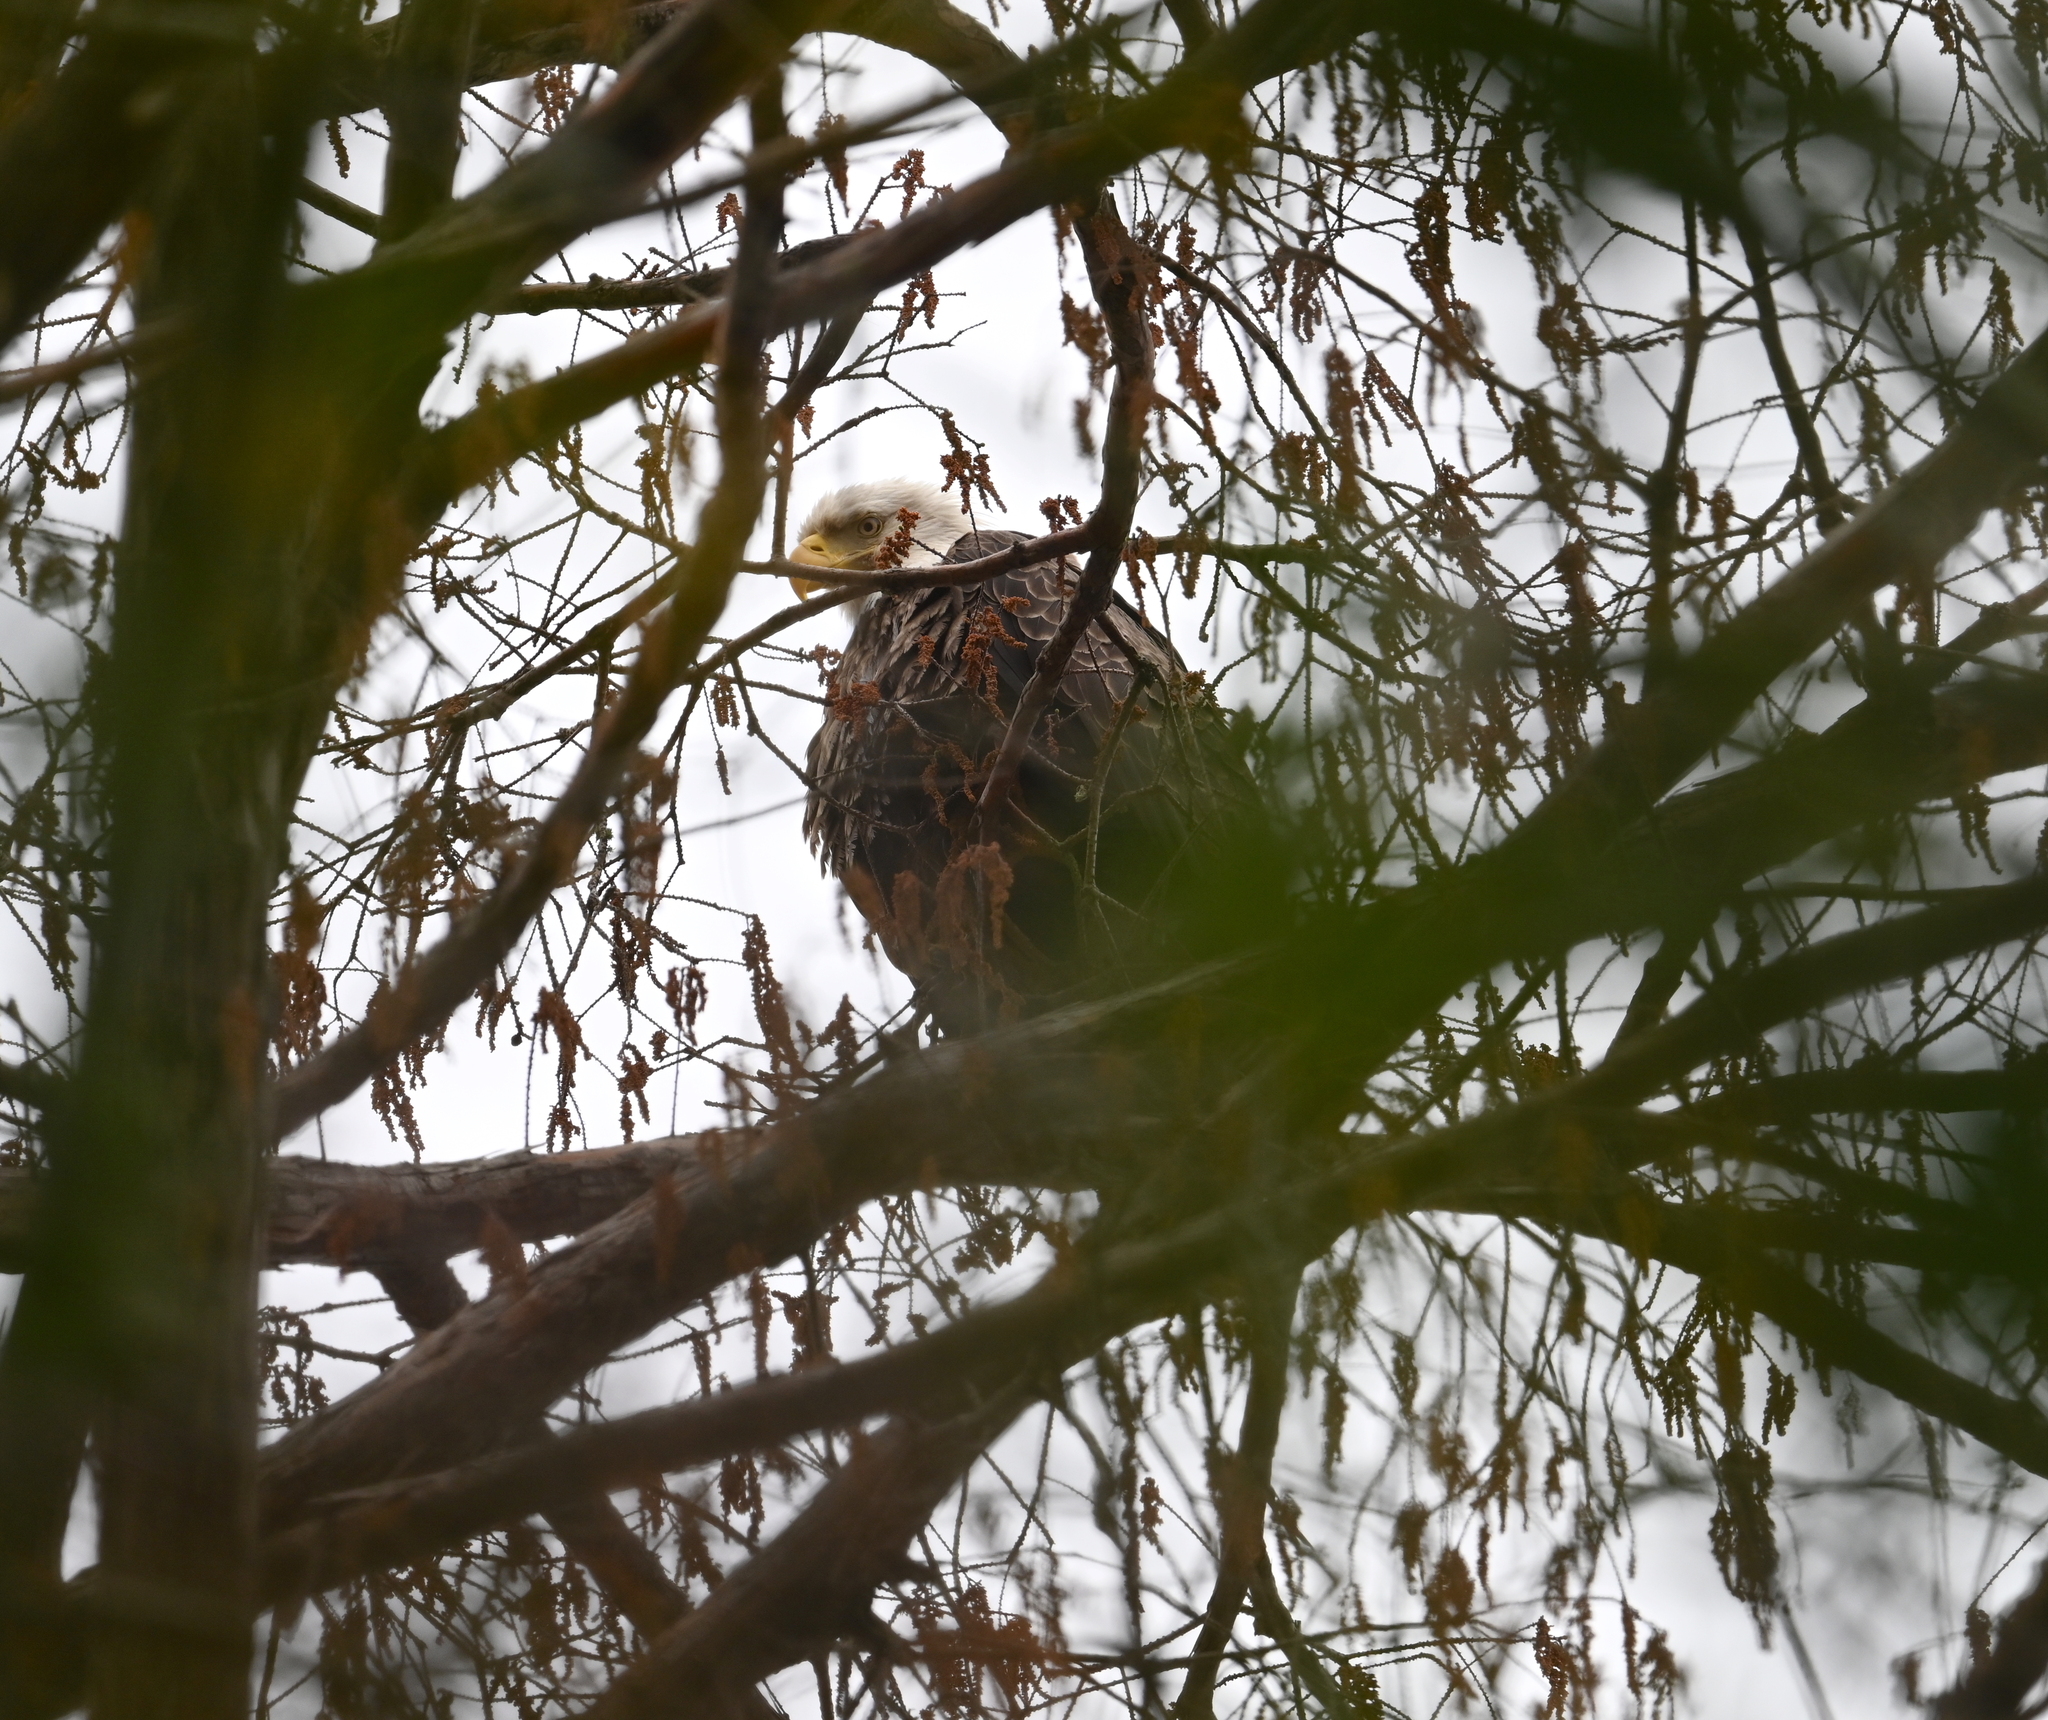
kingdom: Animalia
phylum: Chordata
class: Aves
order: Accipitriformes
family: Accipitridae
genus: Haliaeetus
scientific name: Haliaeetus leucocephalus
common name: Bald eagle
